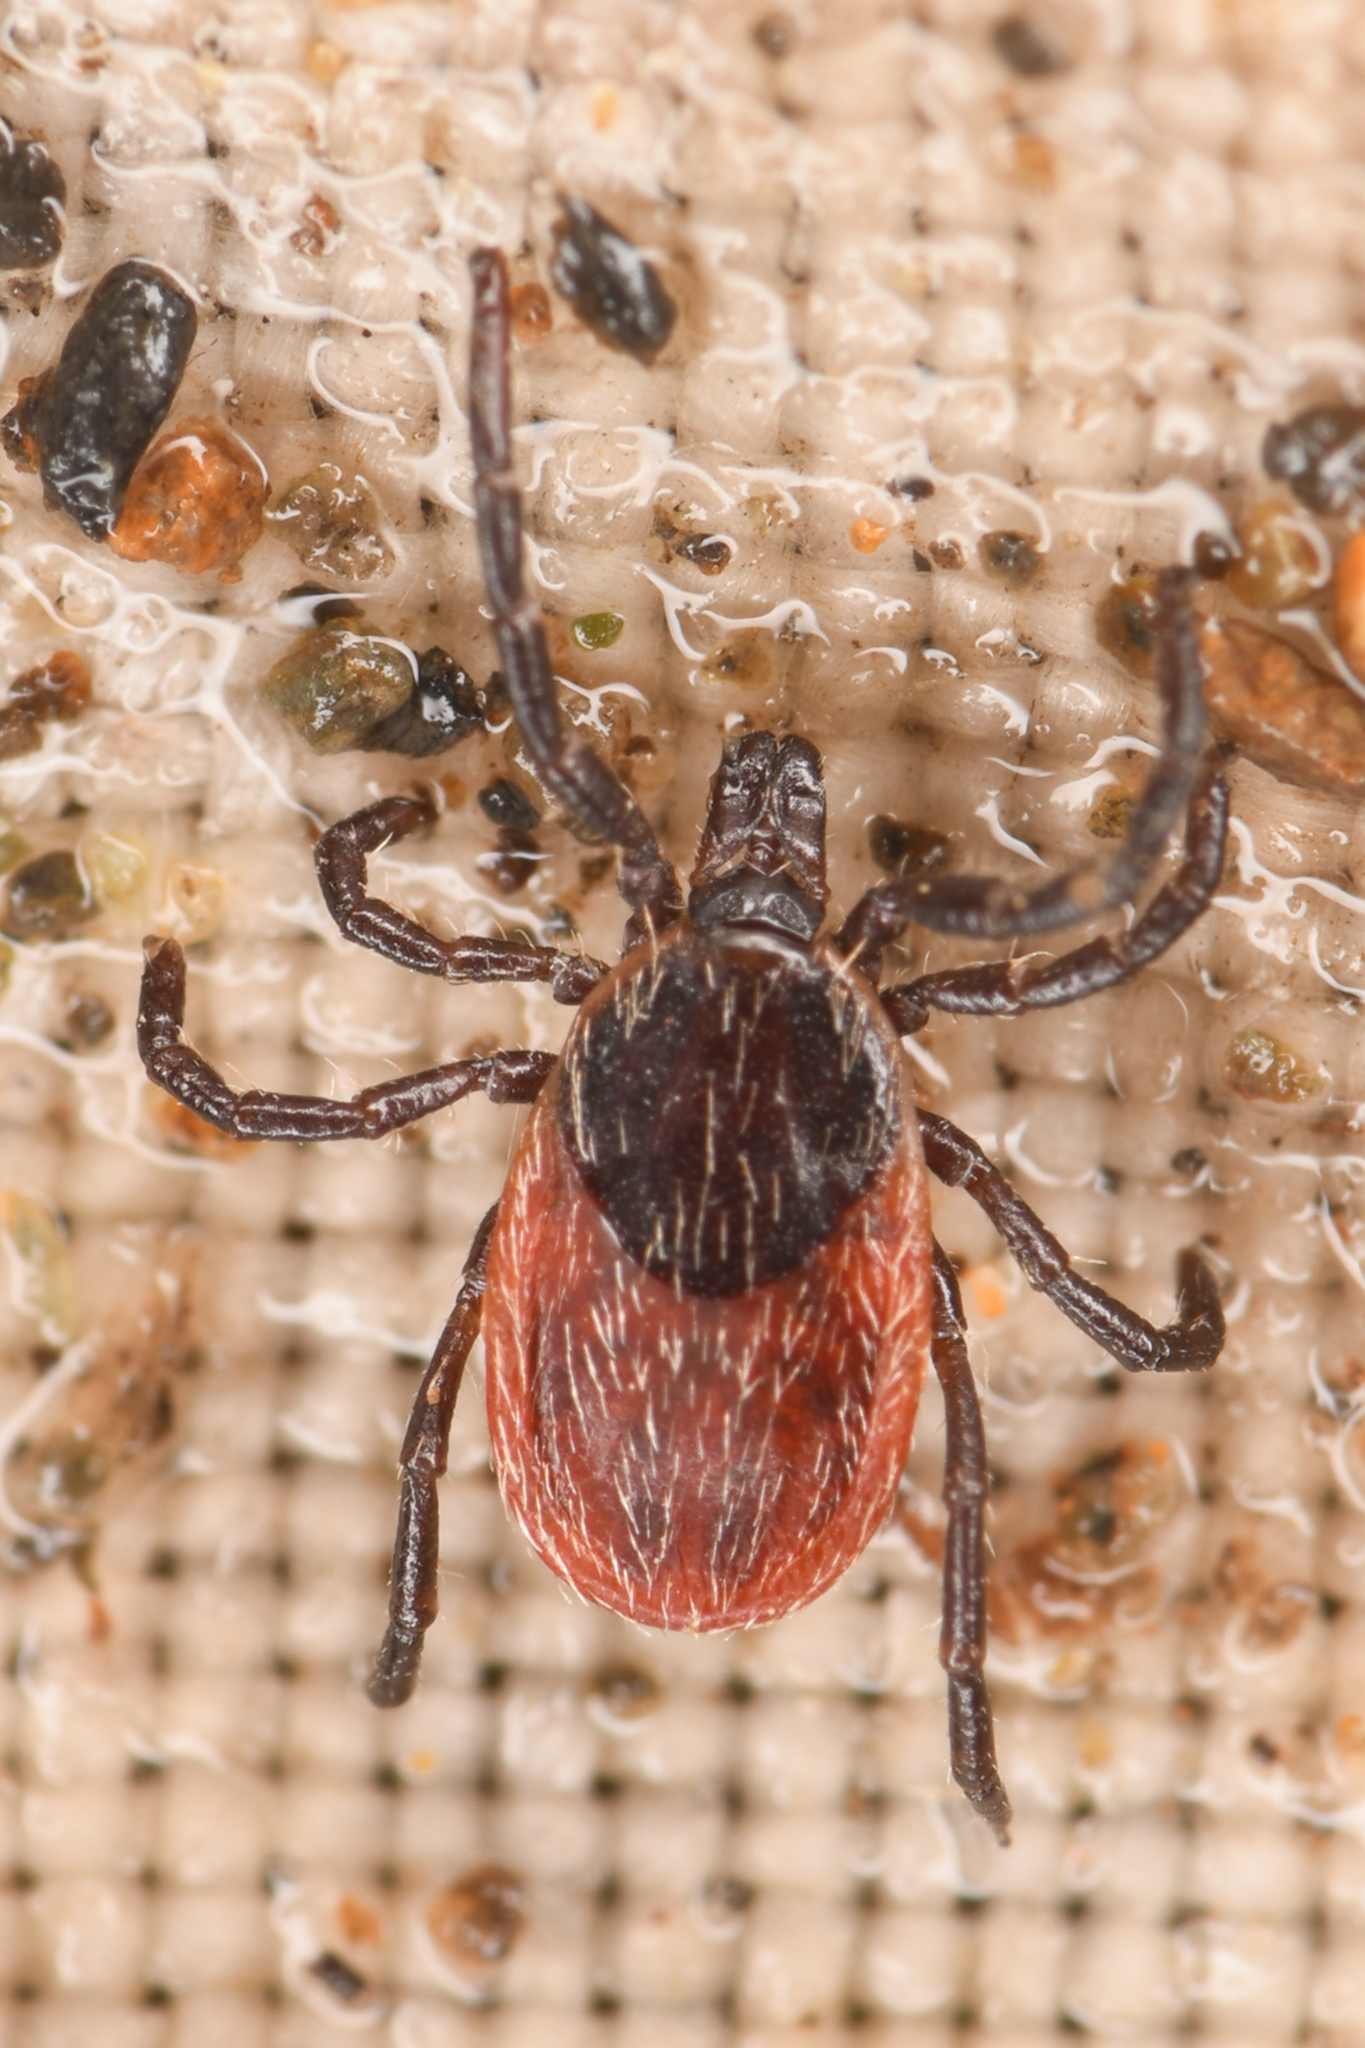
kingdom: Animalia
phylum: Arthropoda
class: Arachnida
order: Ixodida
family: Ixodidae
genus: Ixodes
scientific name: Ixodes pacificus
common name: California black-legged tick
